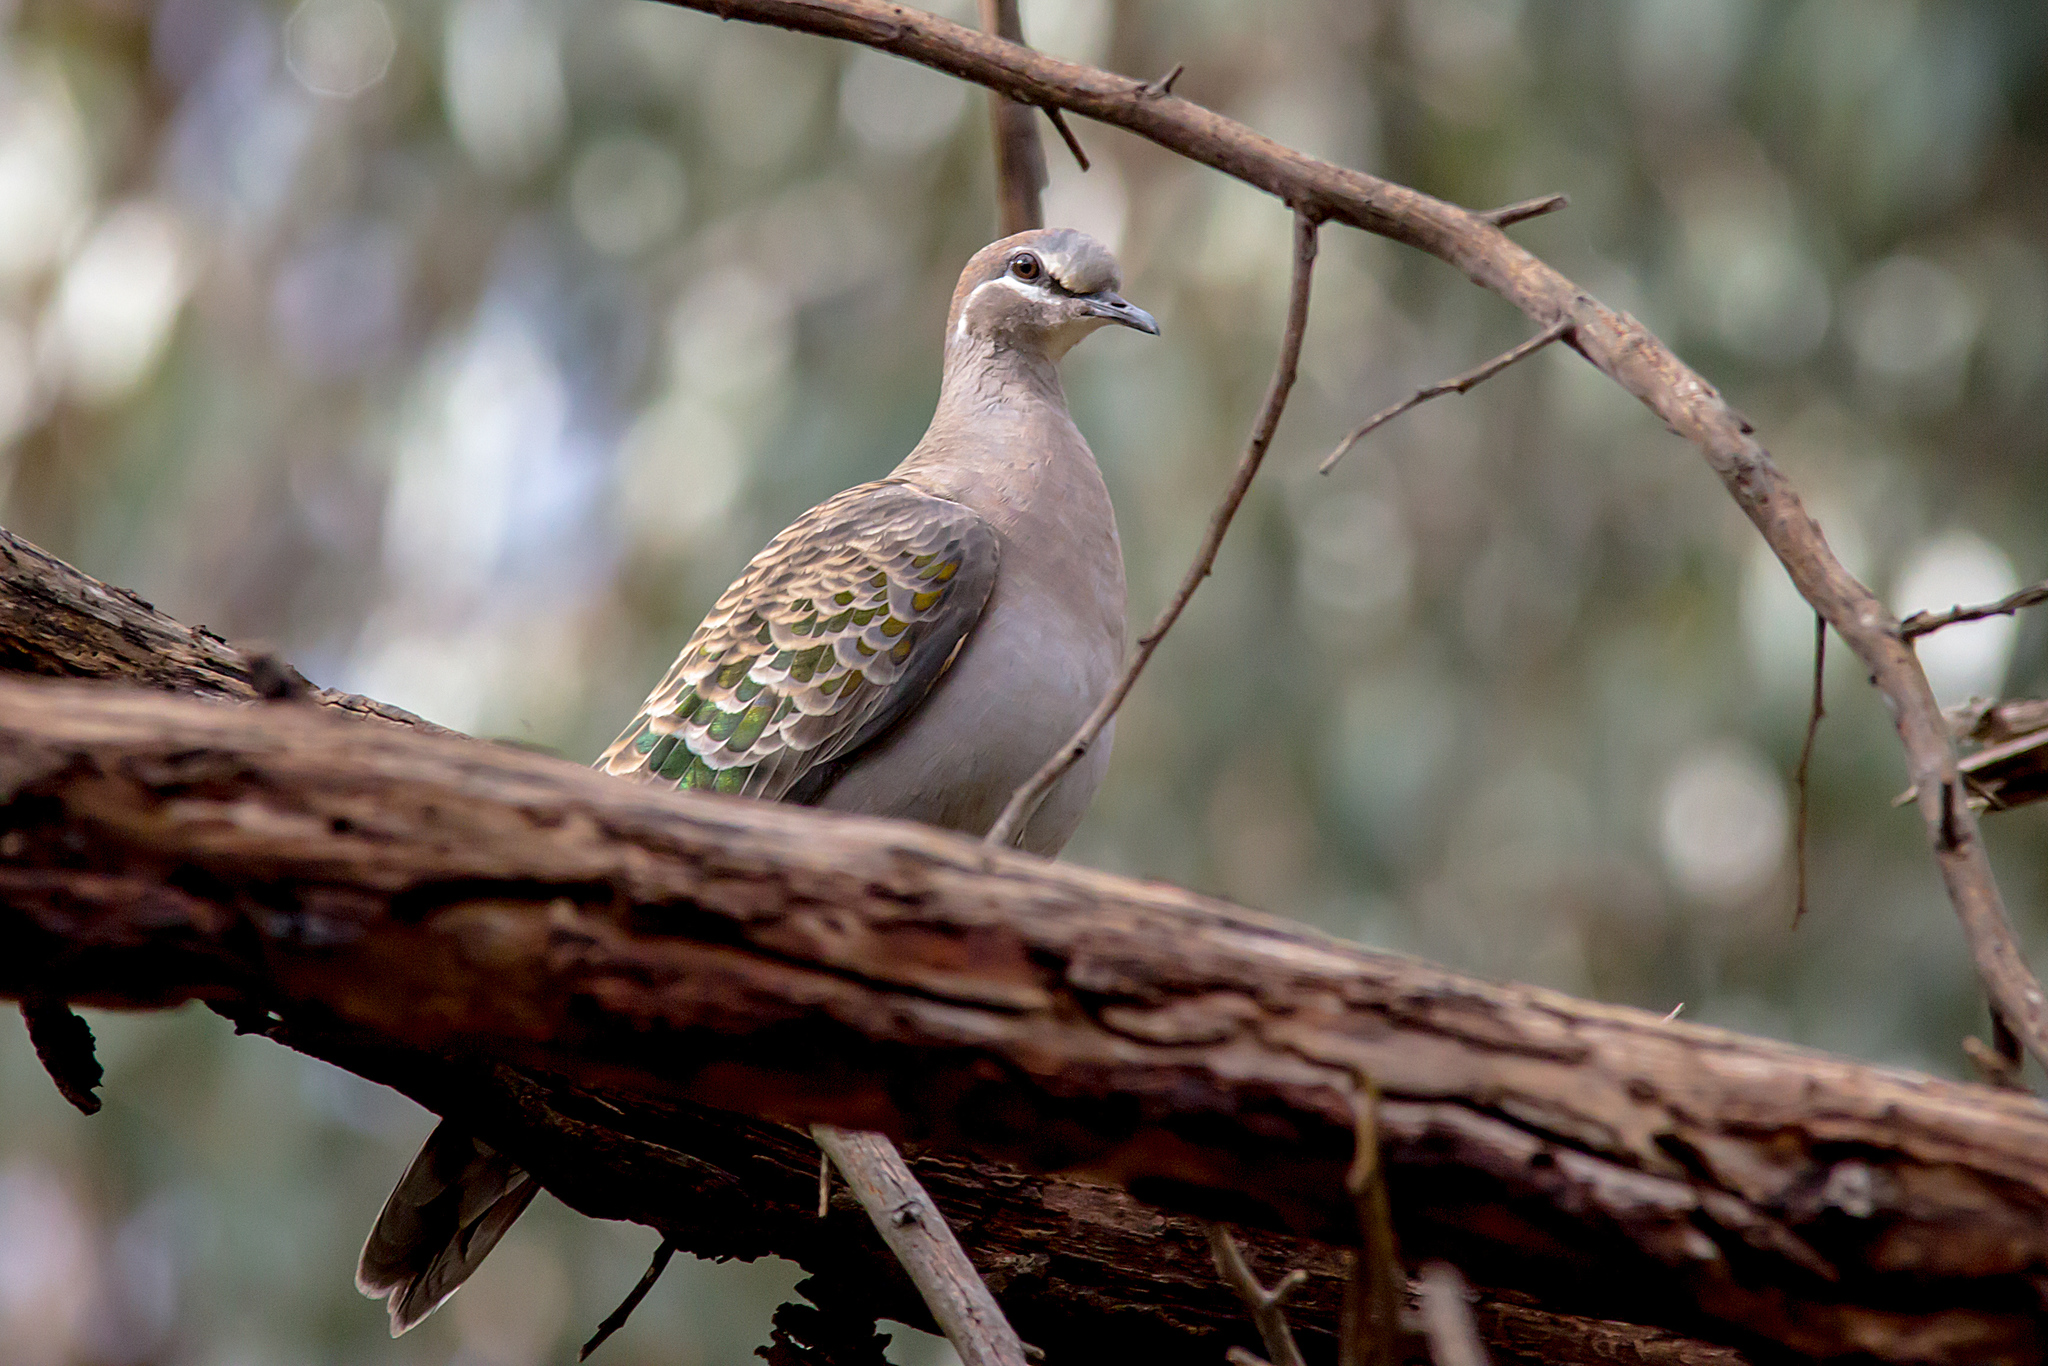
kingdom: Animalia
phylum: Chordata
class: Aves
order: Columbiformes
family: Columbidae
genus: Phaps
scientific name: Phaps chalcoptera
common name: Common bronzewing
